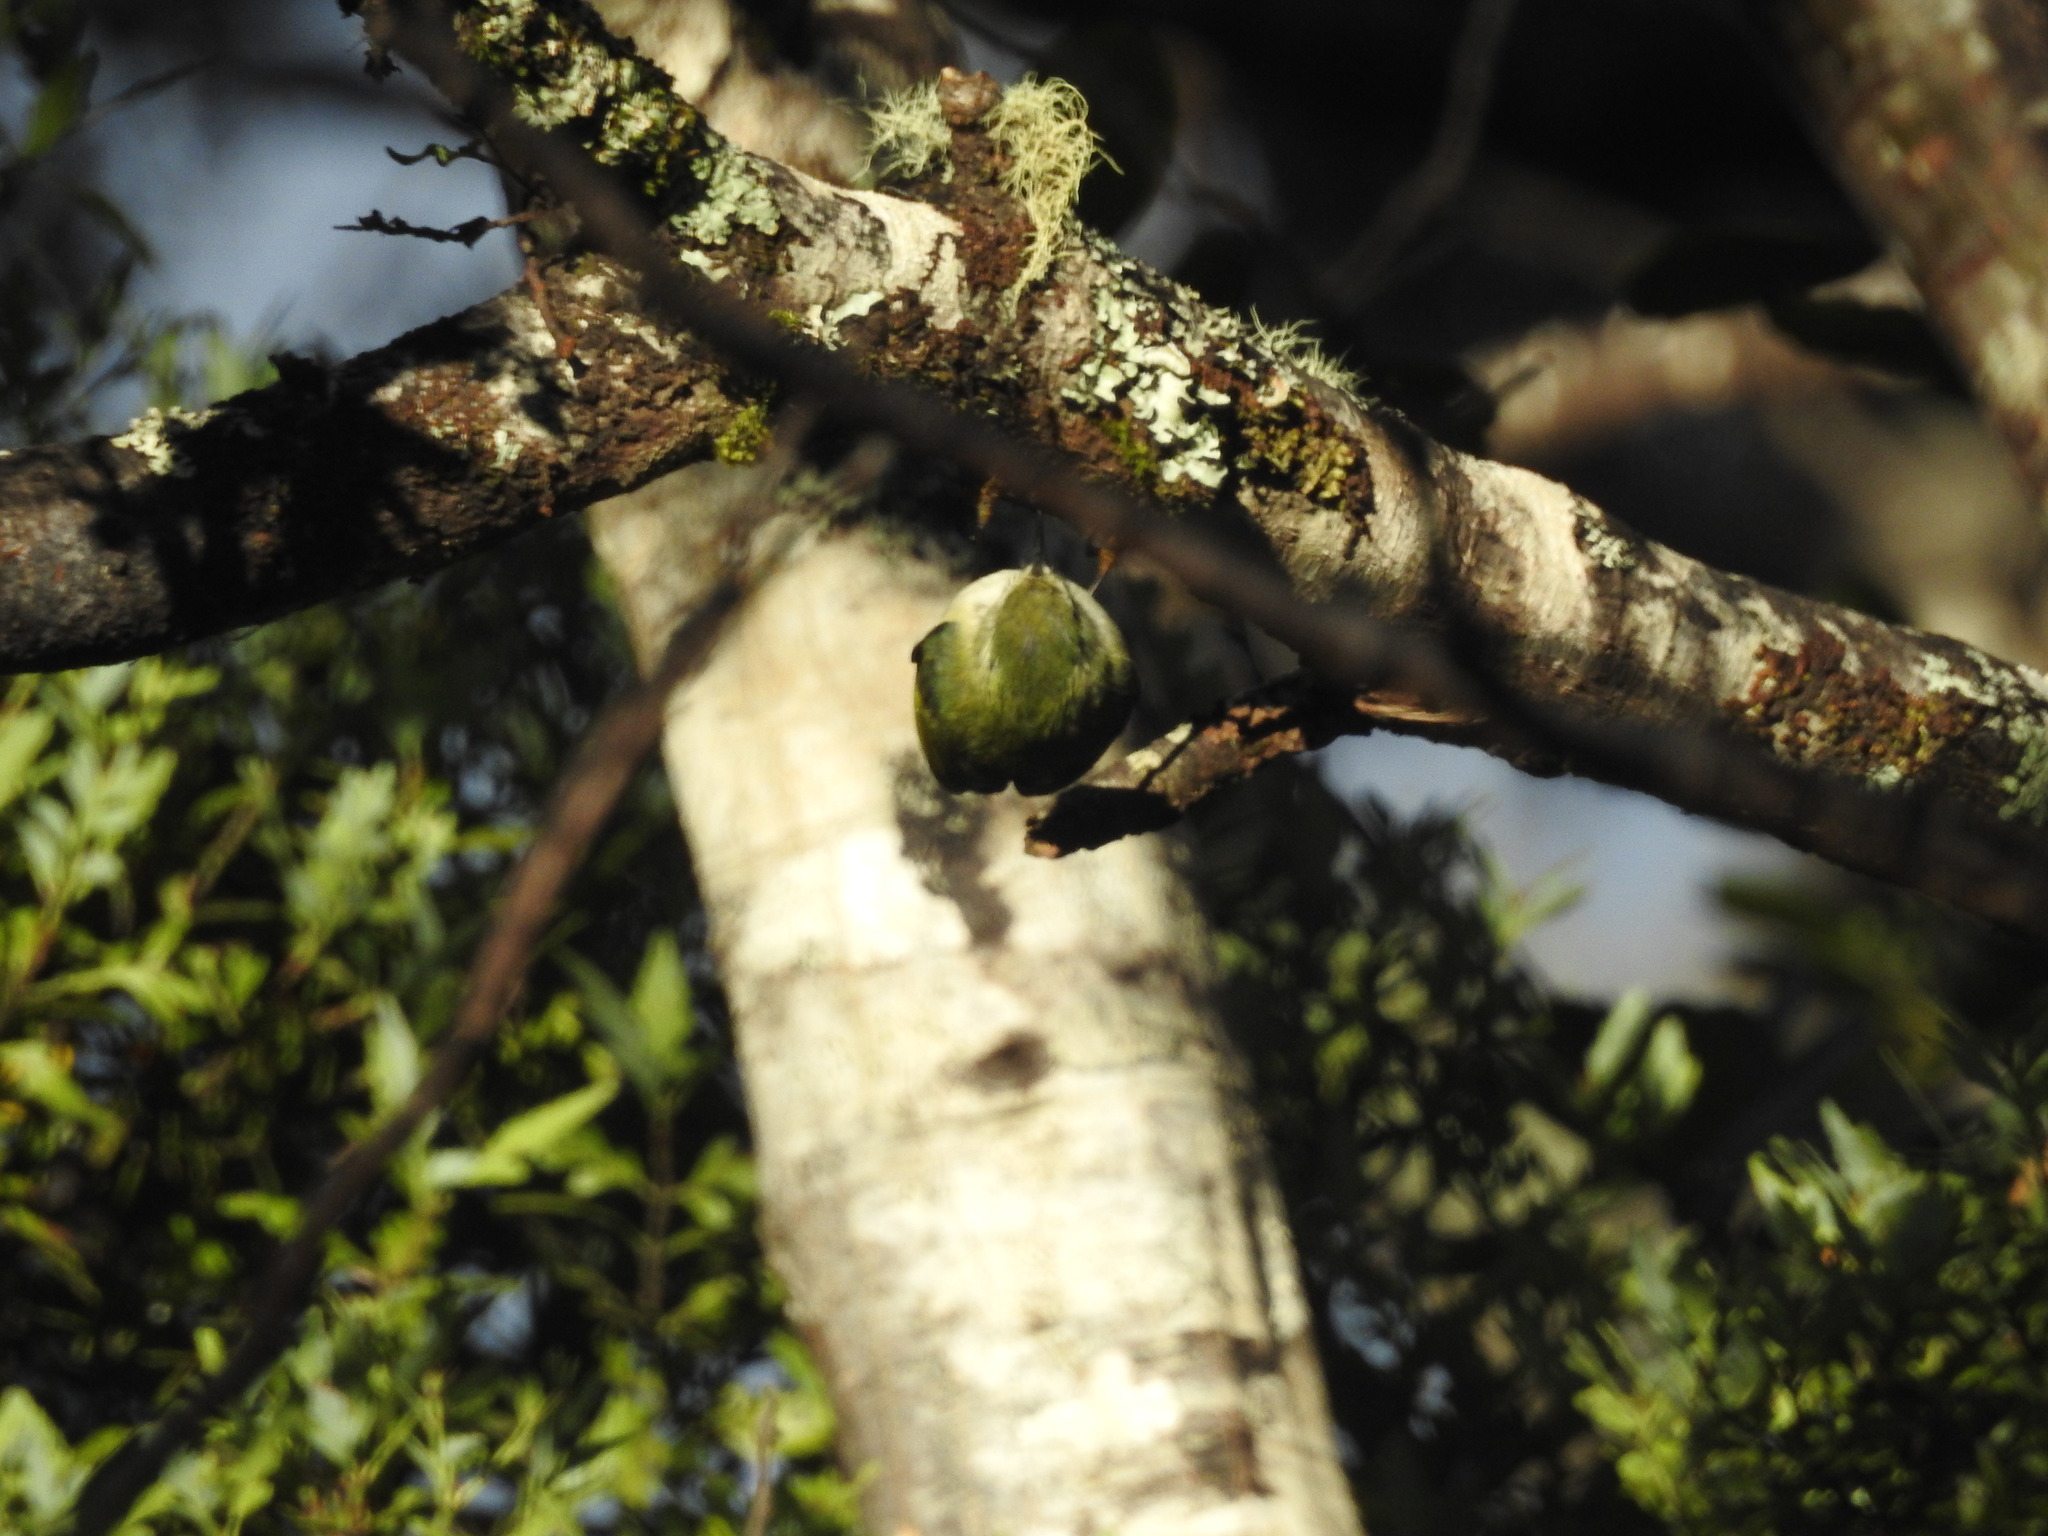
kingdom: Animalia
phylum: Chordata
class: Aves
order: Passeriformes
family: Acanthisittidae
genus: Acanthisitta
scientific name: Acanthisitta chloris
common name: Rifleman
